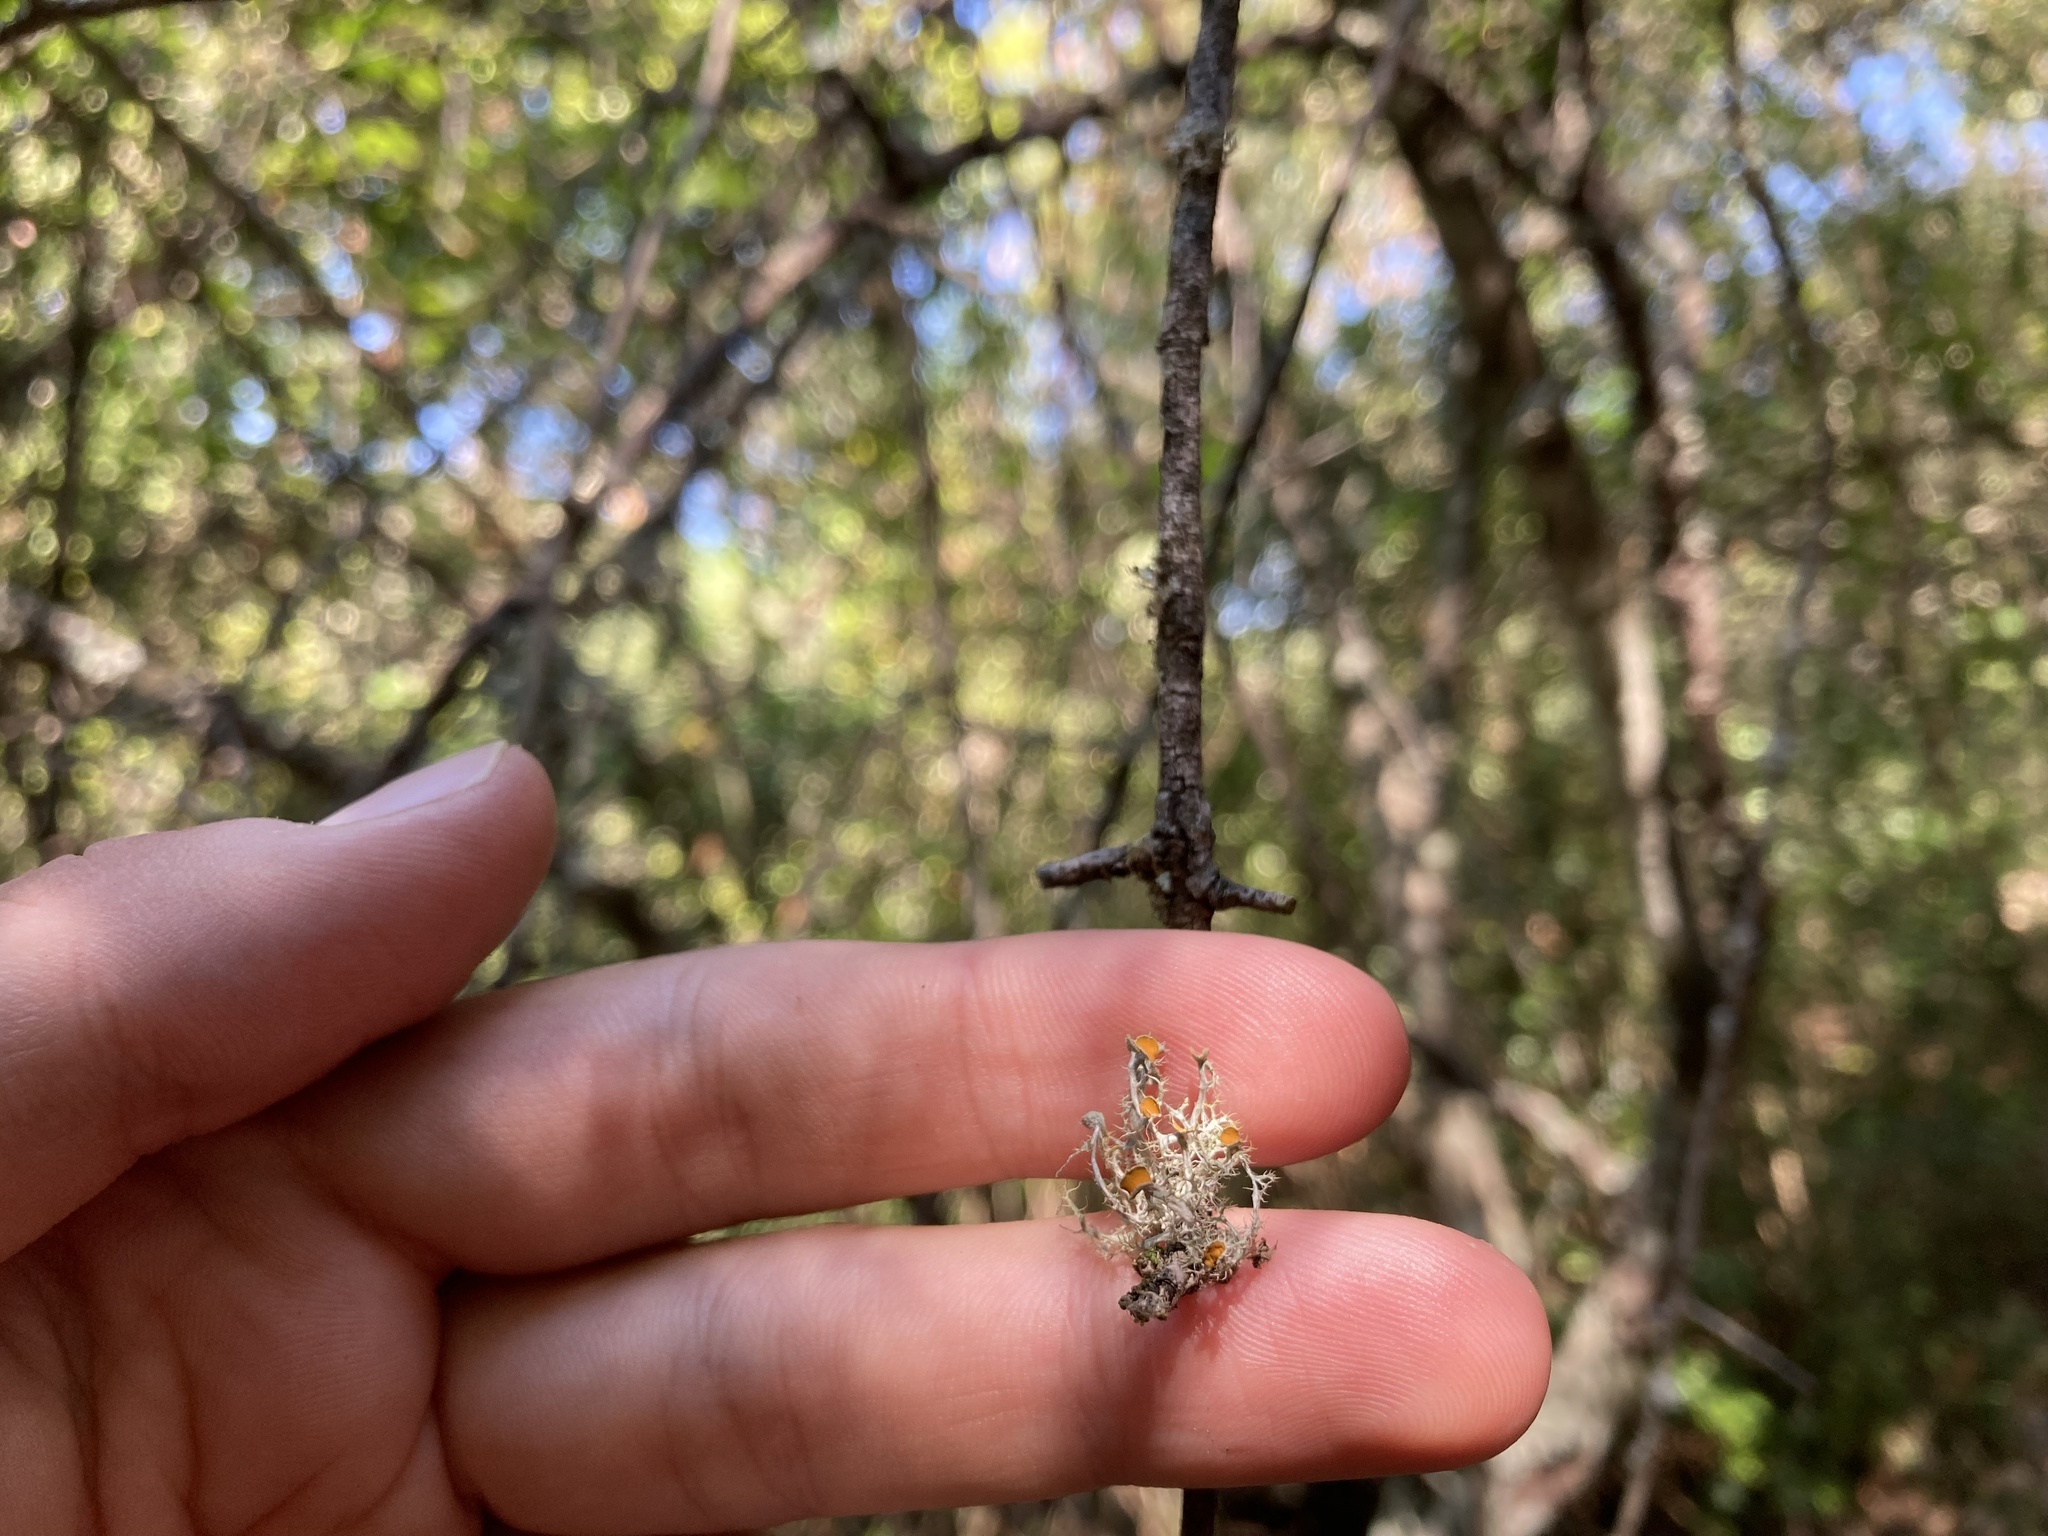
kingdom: Fungi
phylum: Ascomycota
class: Lecanoromycetes
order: Teloschistales
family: Teloschistaceae
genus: Niorma
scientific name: Niorma chrysophthalma
